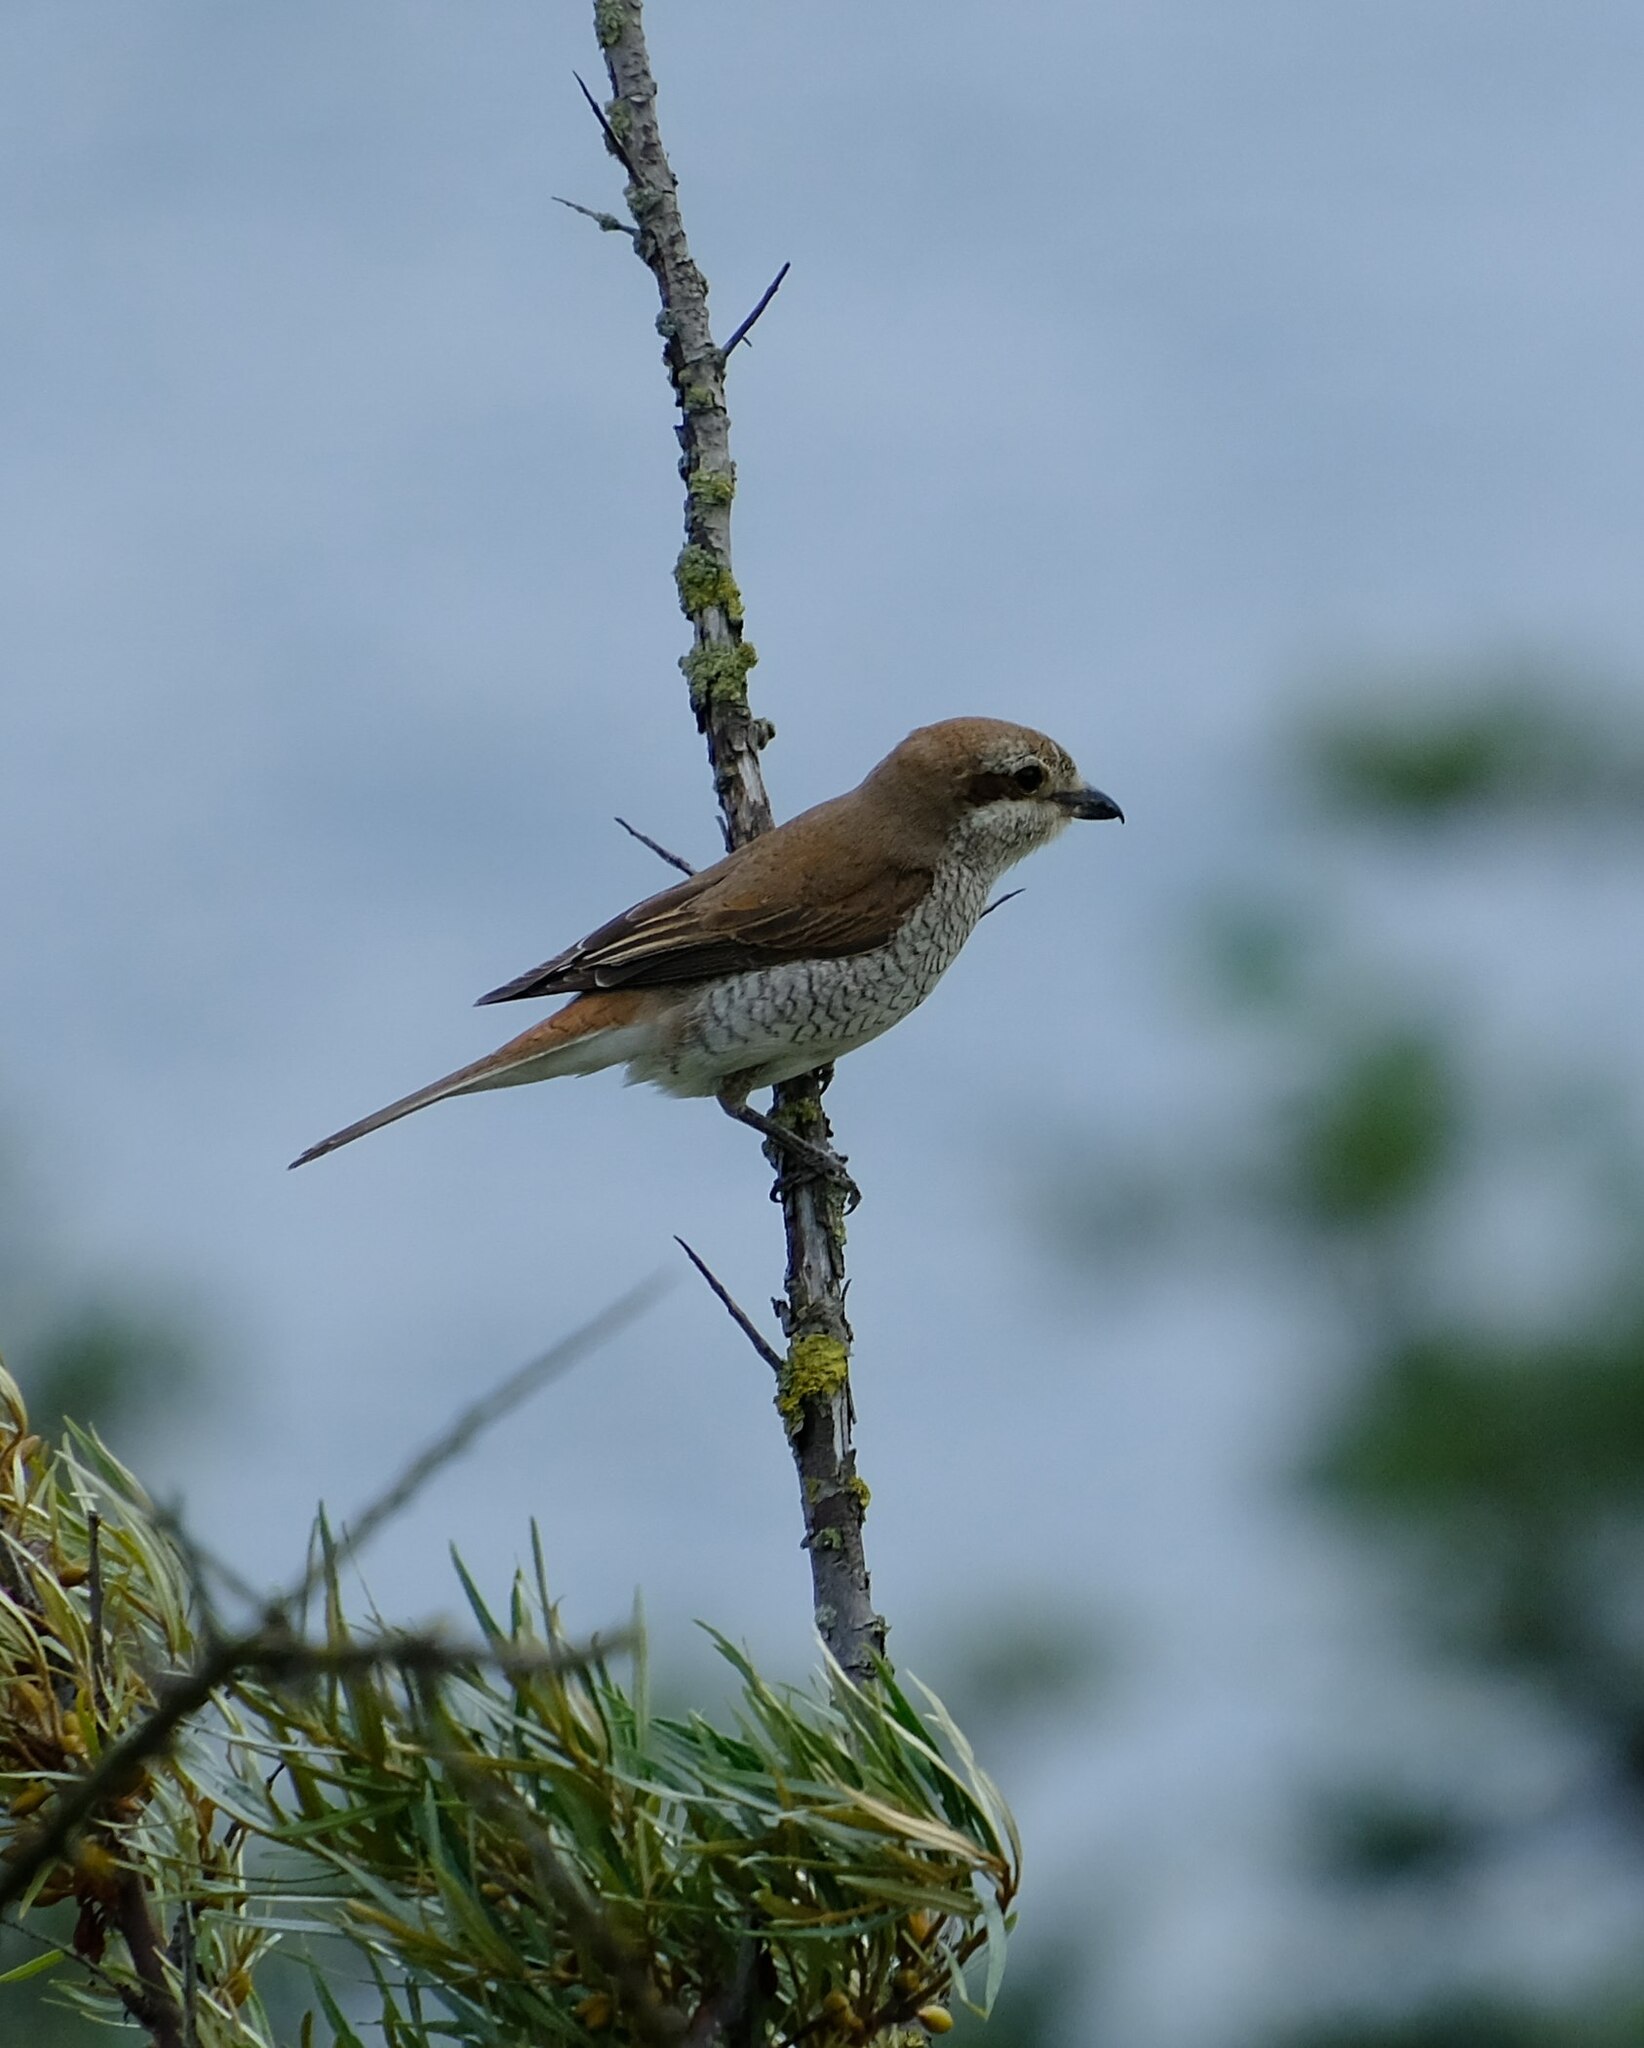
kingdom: Animalia
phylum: Chordata
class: Aves
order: Passeriformes
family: Laniidae
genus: Lanius
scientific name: Lanius collurio
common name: Red-backed shrike
